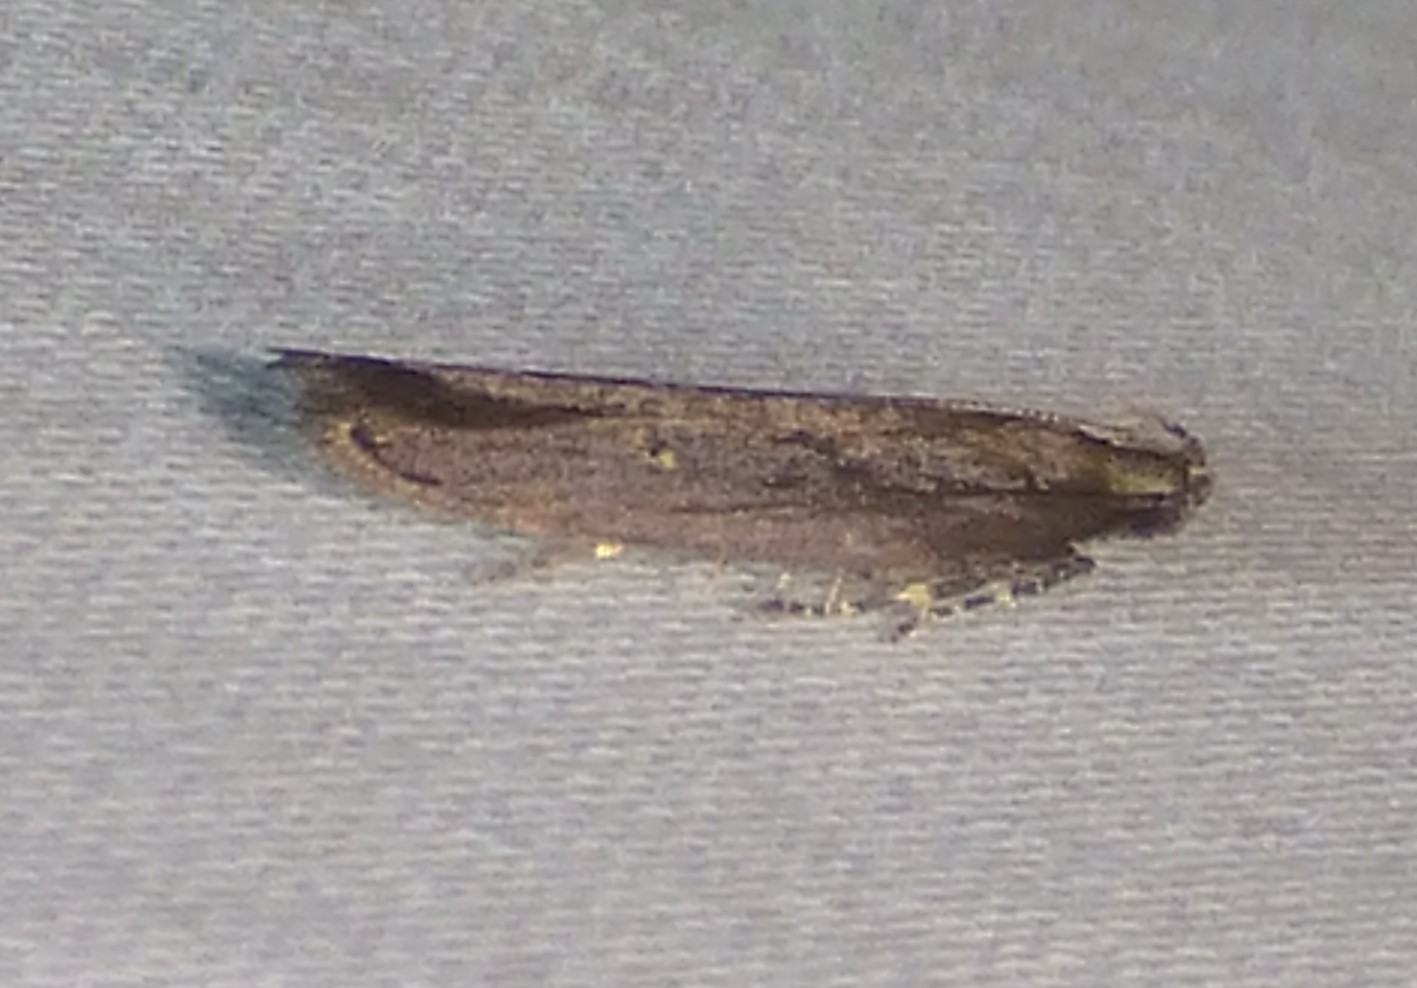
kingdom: Animalia
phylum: Arthropoda
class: Insecta
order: Lepidoptera
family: Gelechiidae
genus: Chionodes
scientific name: Chionodes discoocellella
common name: Eye-ringed chionodes moth
